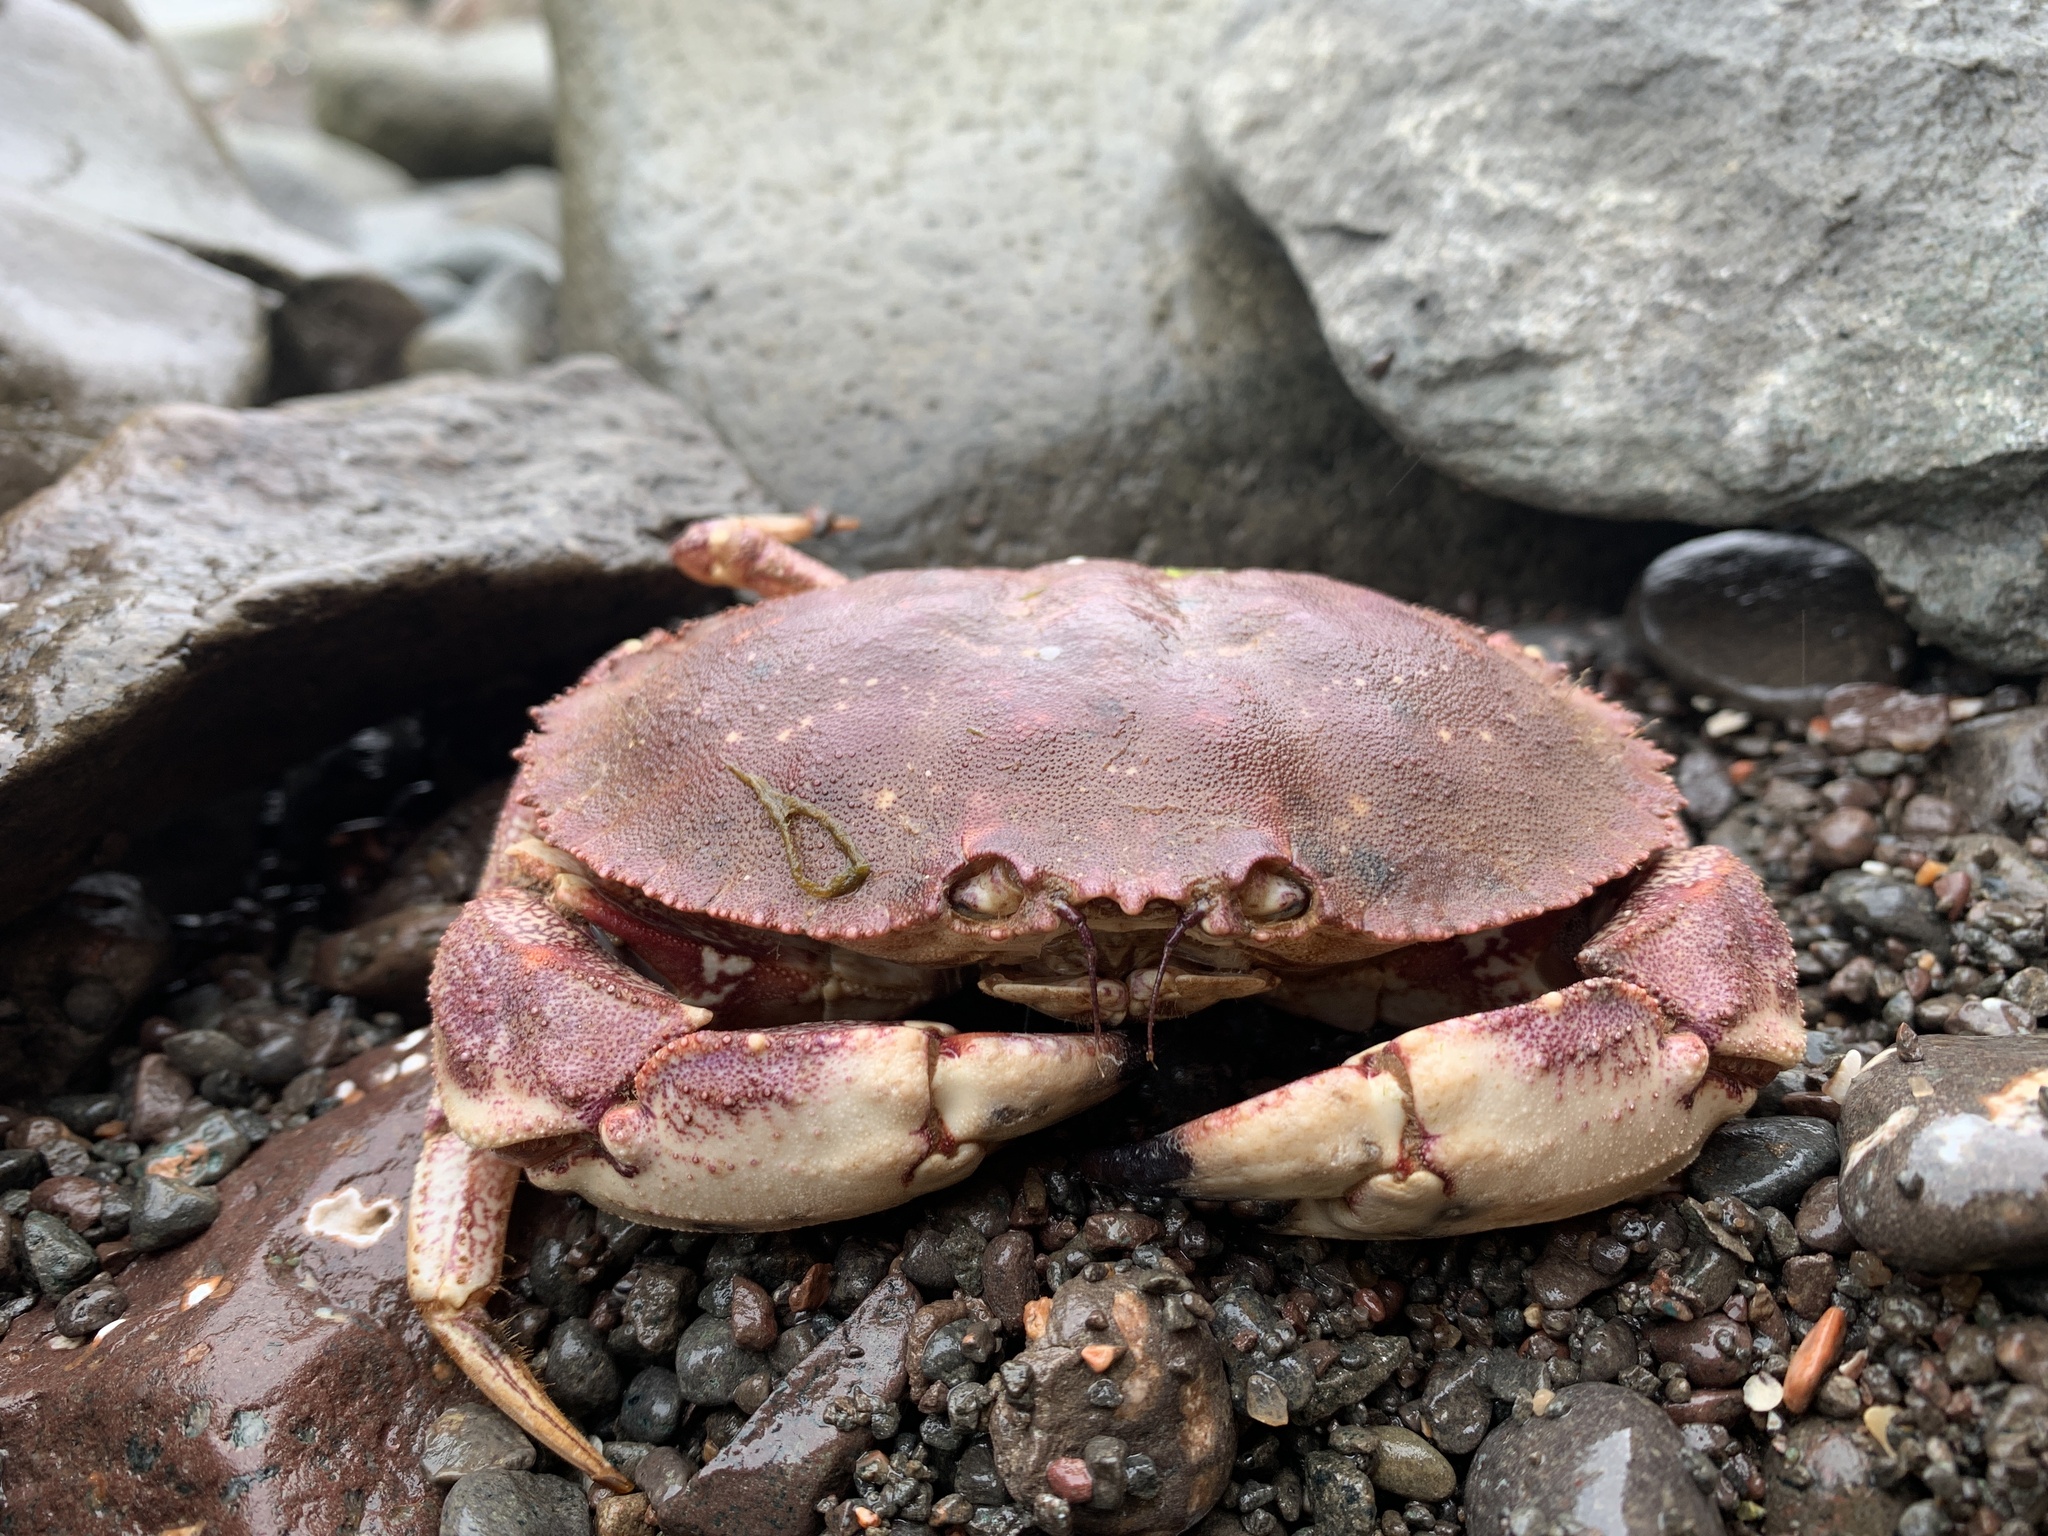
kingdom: Animalia
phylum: Arthropoda
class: Malacostraca
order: Decapoda
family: Cancridae
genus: Cancer
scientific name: Cancer borealis
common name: Jonah crab
